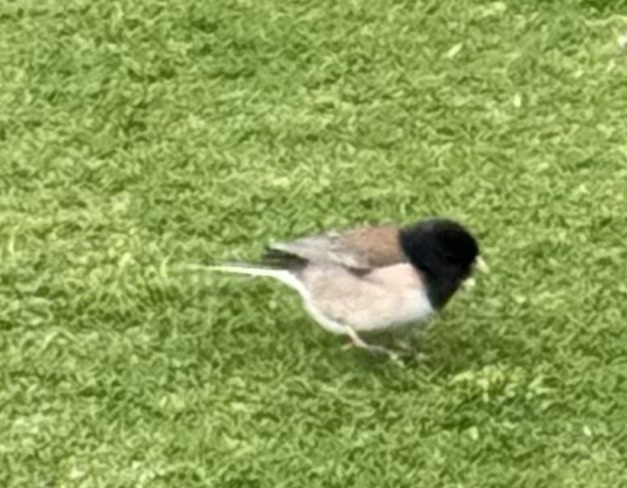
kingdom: Animalia
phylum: Chordata
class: Aves
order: Passeriformes
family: Passerellidae
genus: Junco
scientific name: Junco hyemalis
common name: Dark-eyed junco
